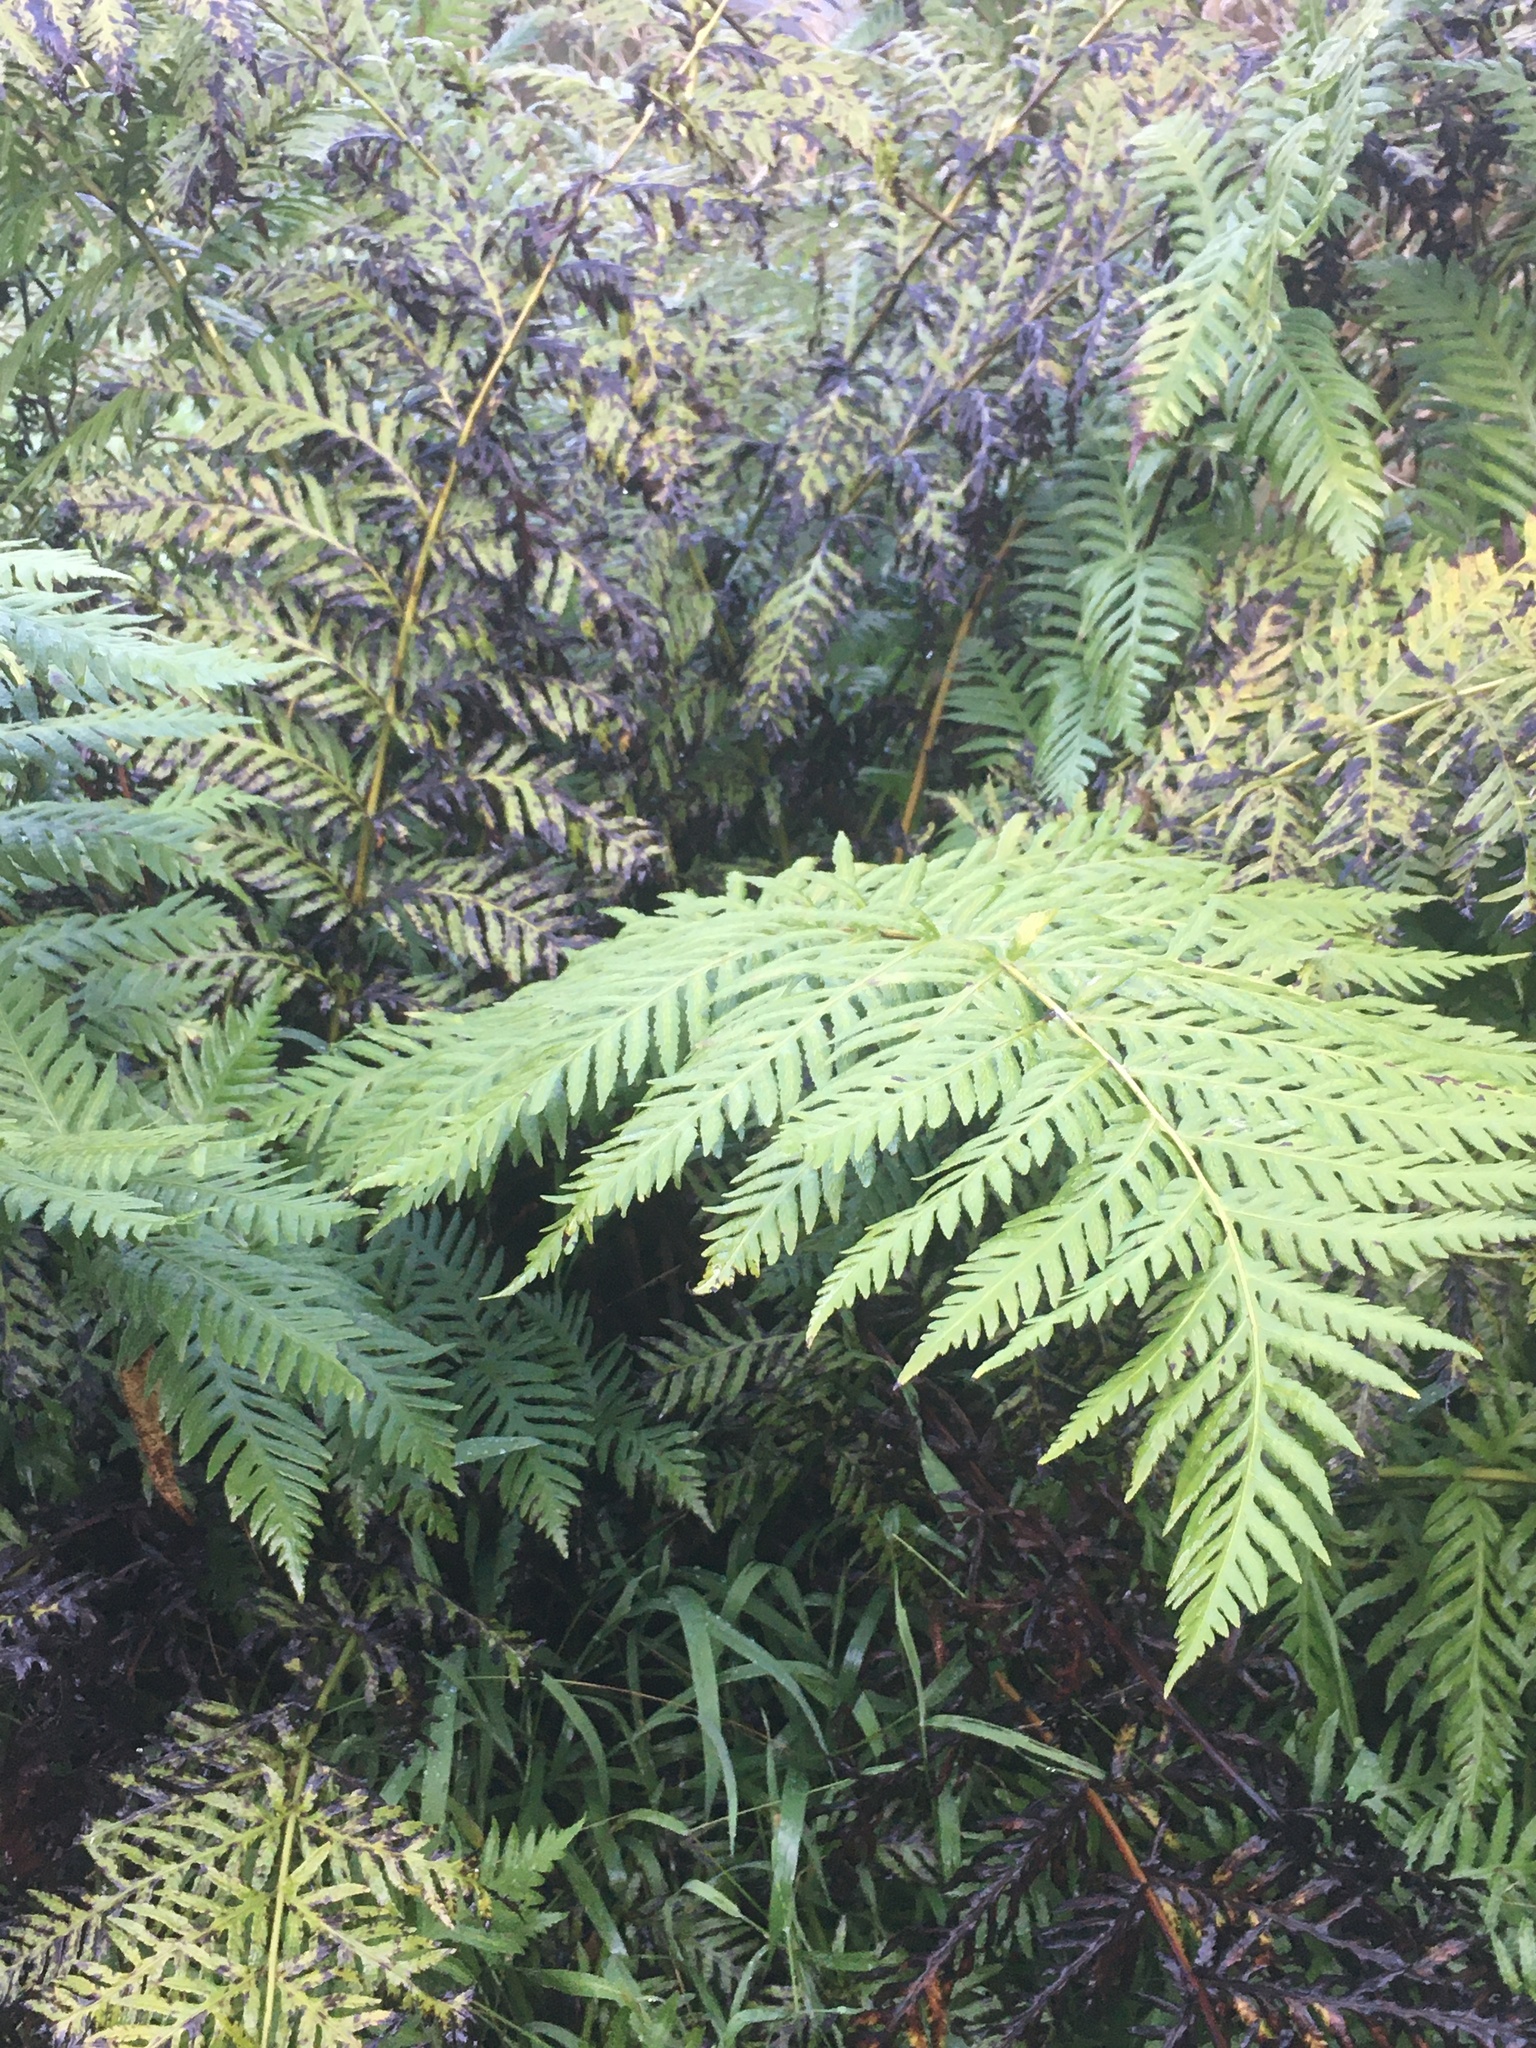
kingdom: Plantae
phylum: Tracheophyta
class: Polypodiopsida
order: Polypodiales
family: Blechnaceae
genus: Woodwardia
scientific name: Woodwardia fimbriata
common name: Giant chain fern
